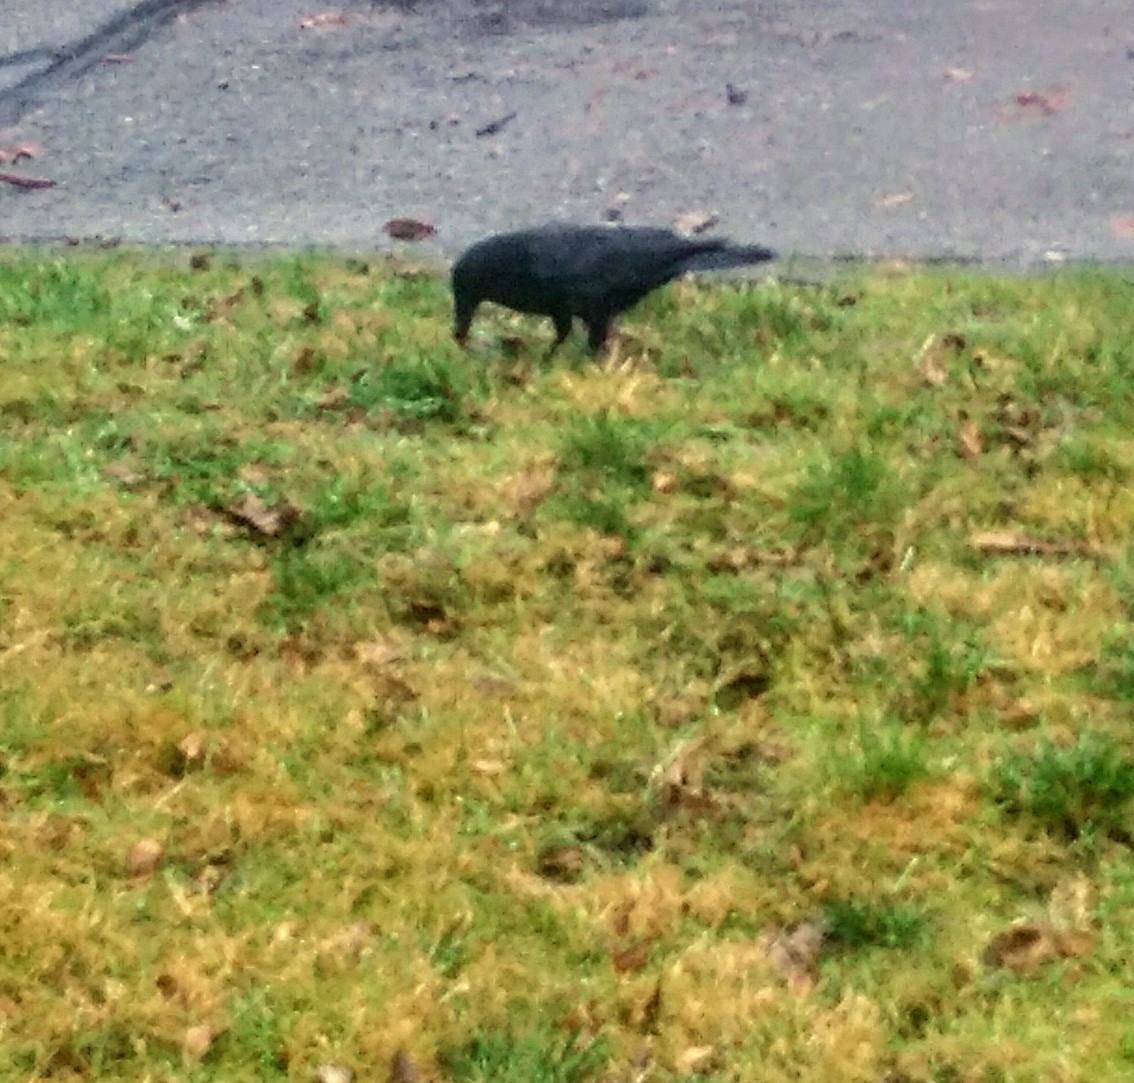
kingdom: Animalia
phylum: Chordata
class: Aves
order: Passeriformes
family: Corvidae
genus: Corvus
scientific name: Corvus brachyrhynchos
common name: American crow
